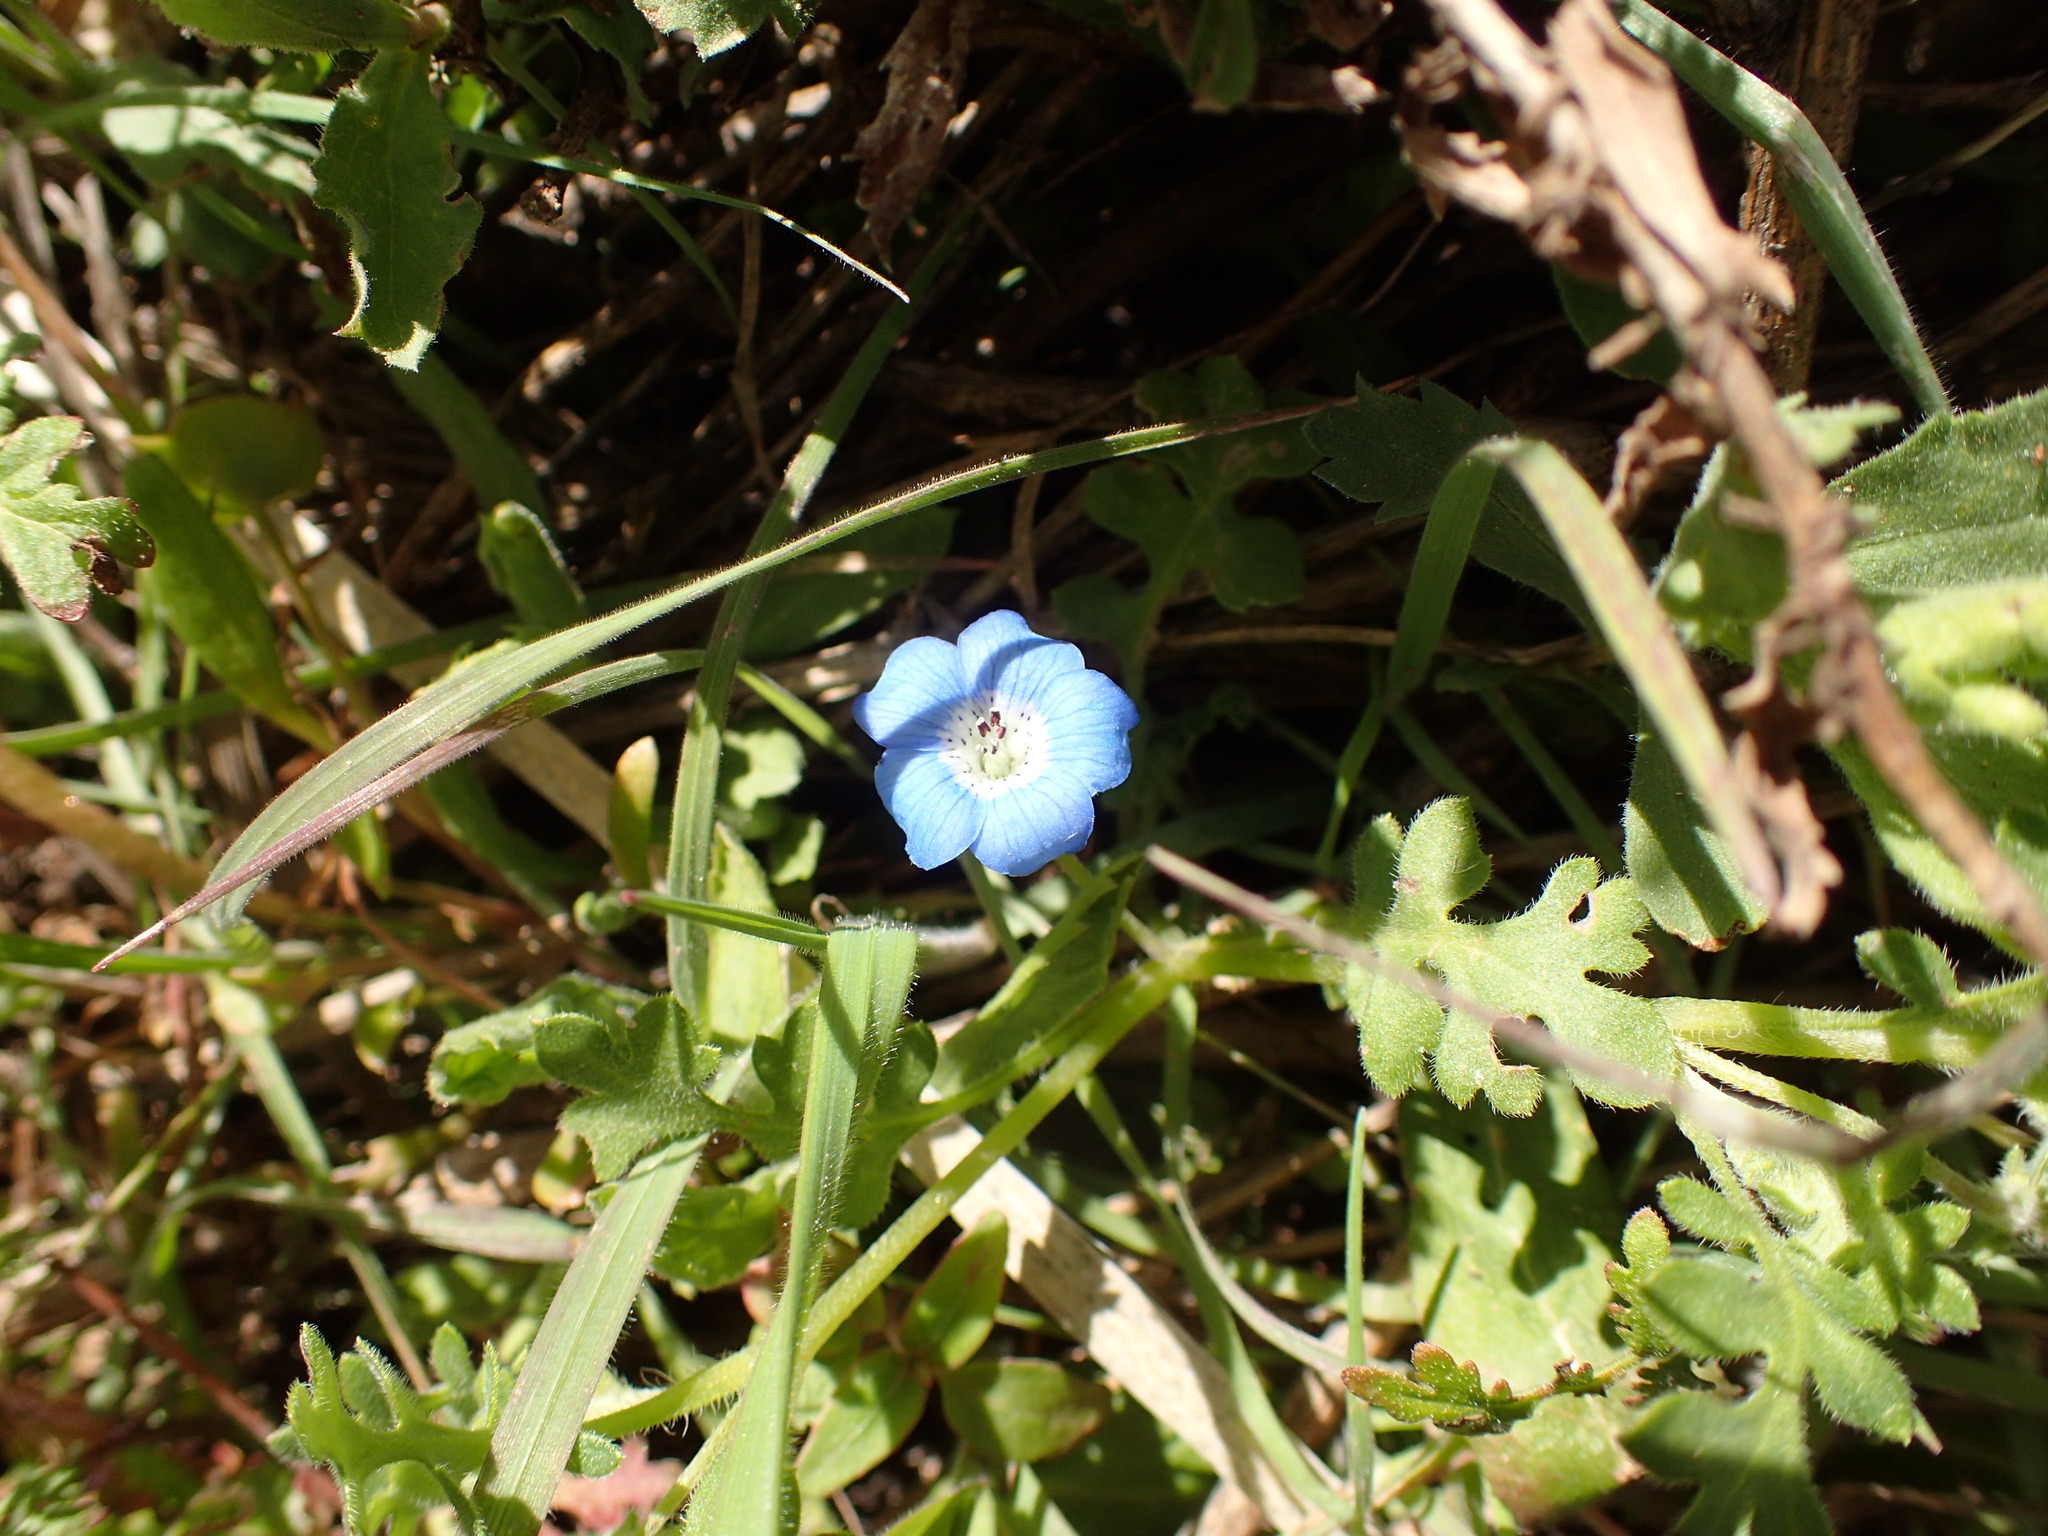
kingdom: Plantae
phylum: Tracheophyta
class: Magnoliopsida
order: Boraginales
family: Hydrophyllaceae
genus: Nemophila
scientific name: Nemophila menziesii
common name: Baby's-blue-eyes
